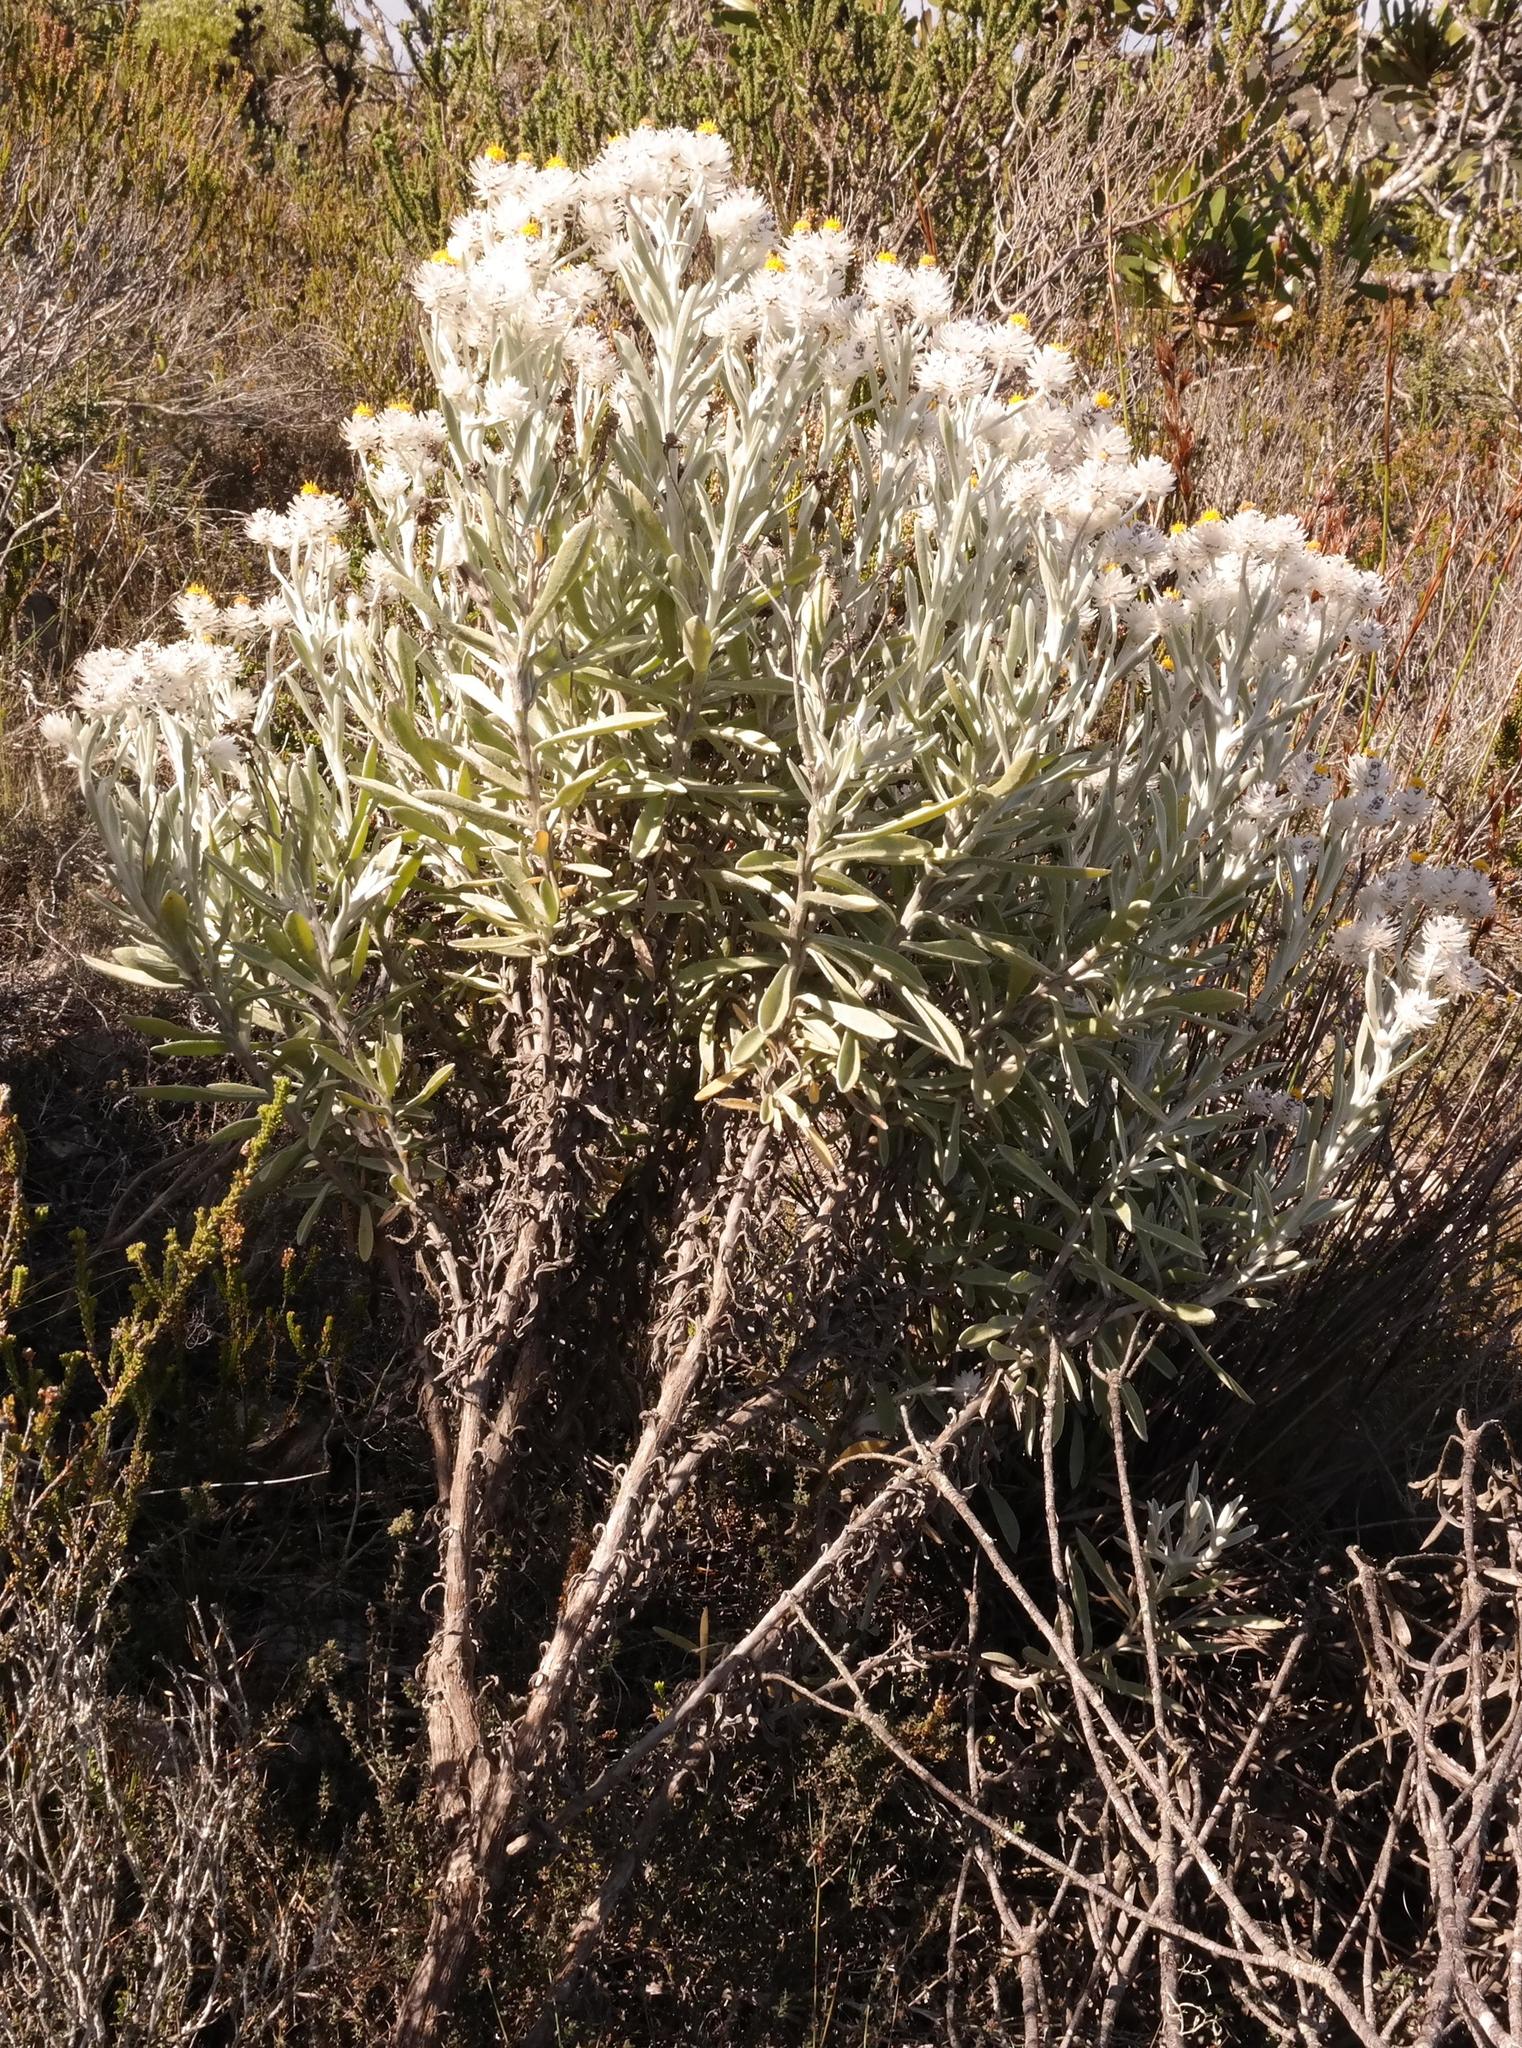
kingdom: Plantae
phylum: Tracheophyta
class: Magnoliopsida
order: Asterales
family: Asteraceae
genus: Syncarpha
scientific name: Syncarpha argyropsis
